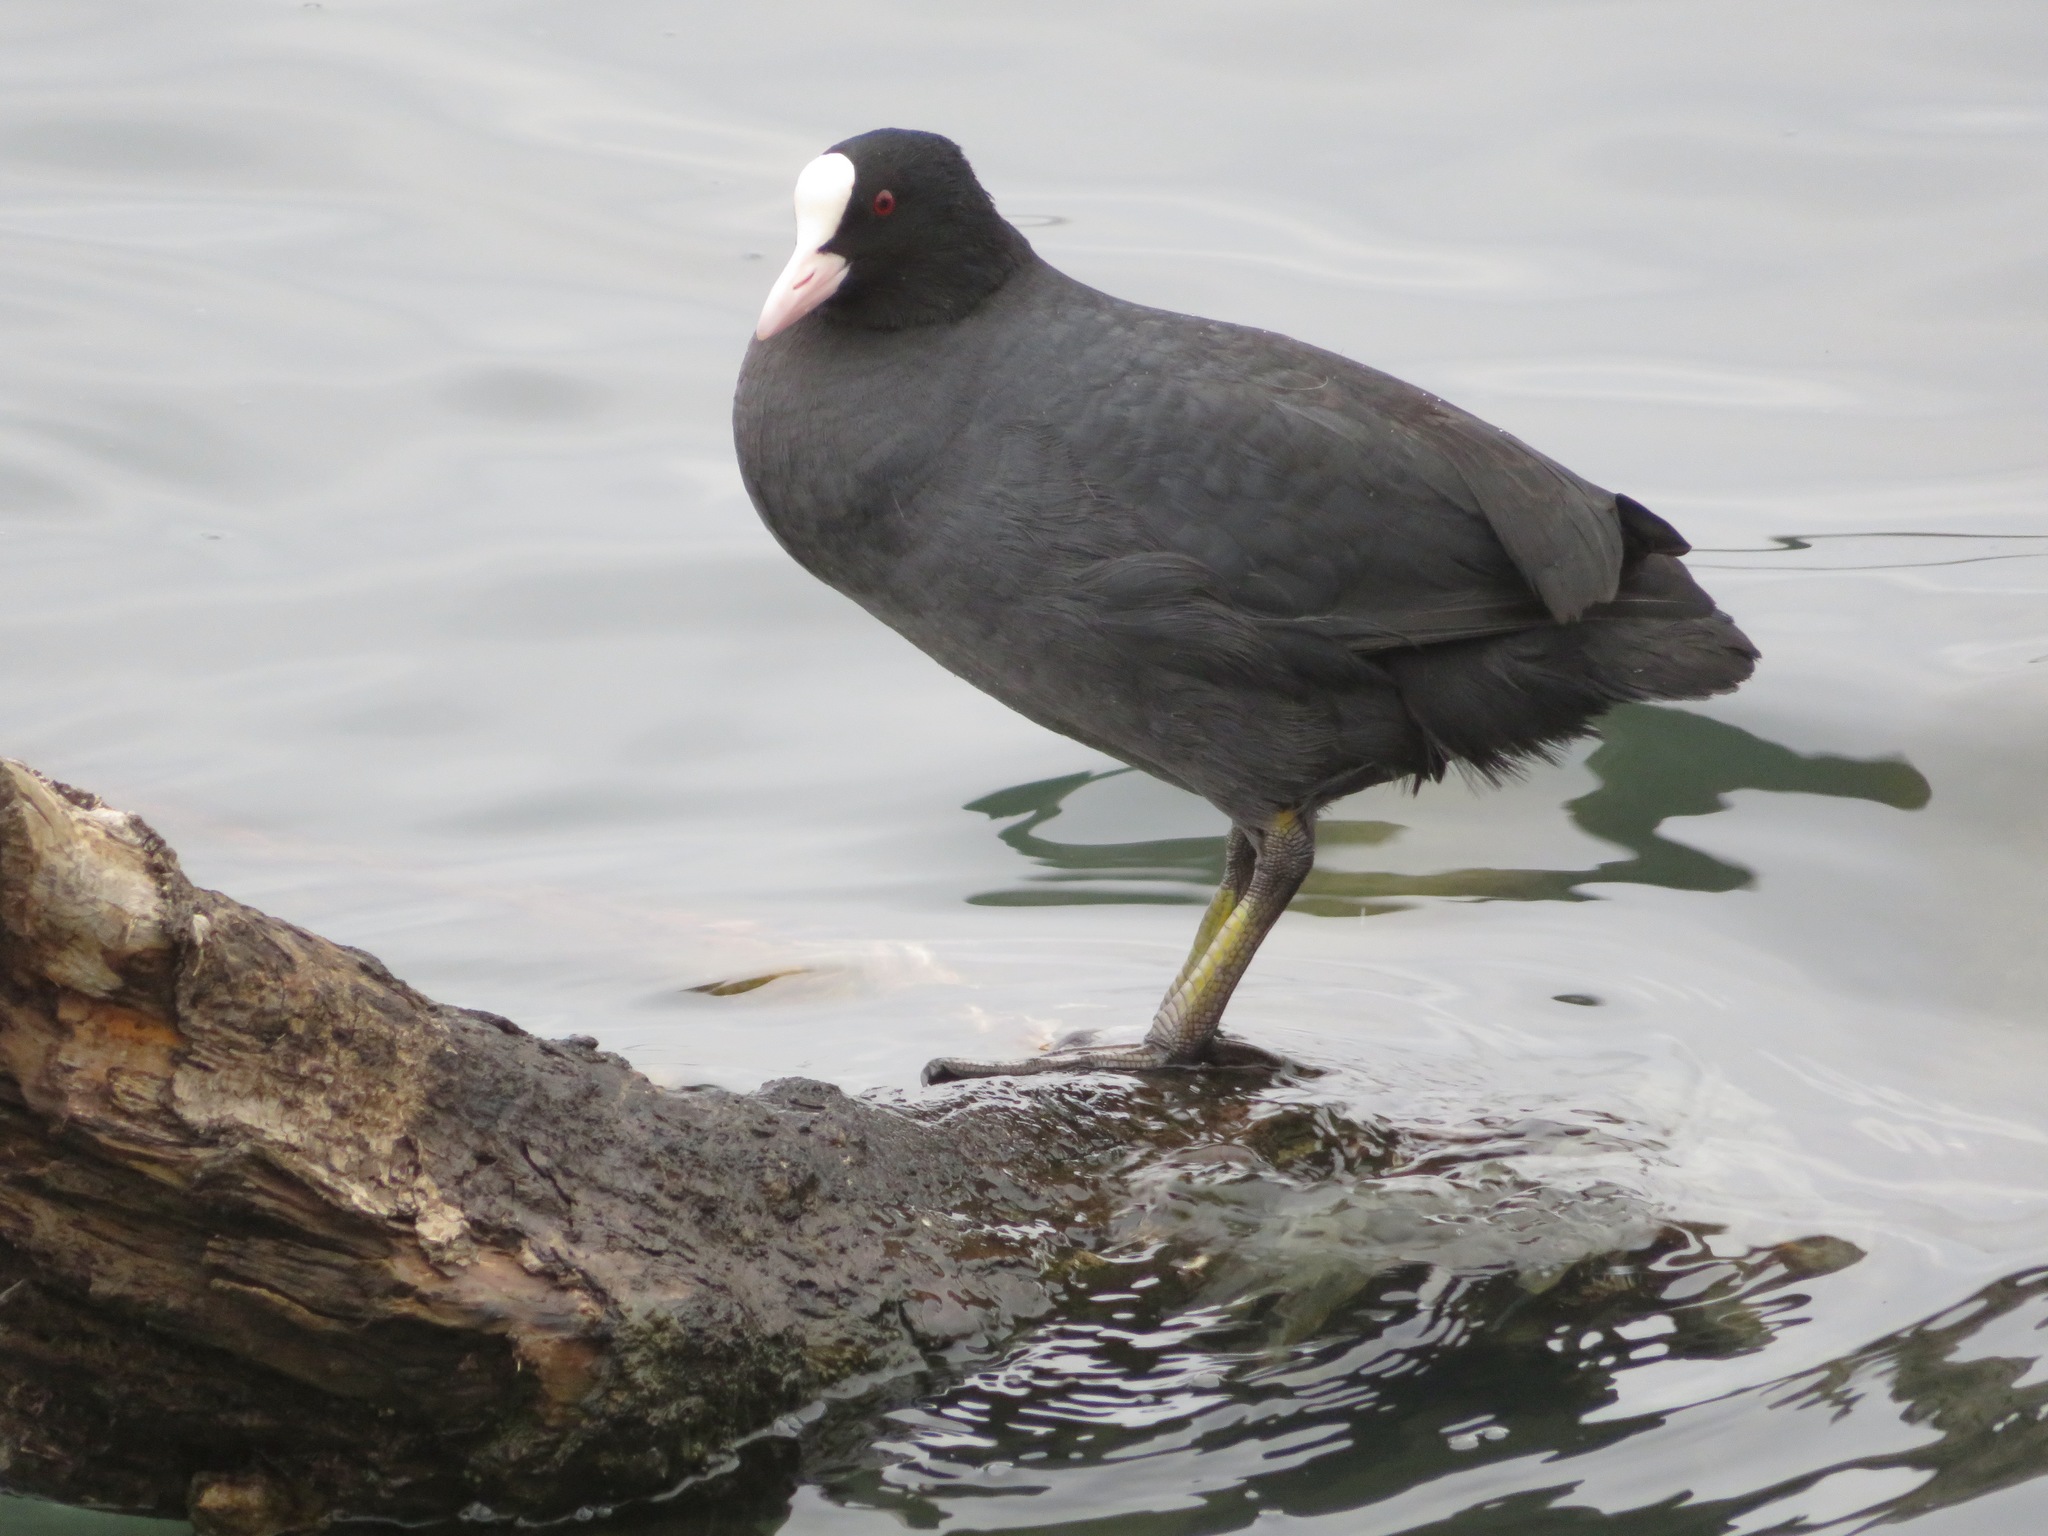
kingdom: Animalia
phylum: Chordata
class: Aves
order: Gruiformes
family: Rallidae
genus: Fulica
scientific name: Fulica atra
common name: Eurasian coot
